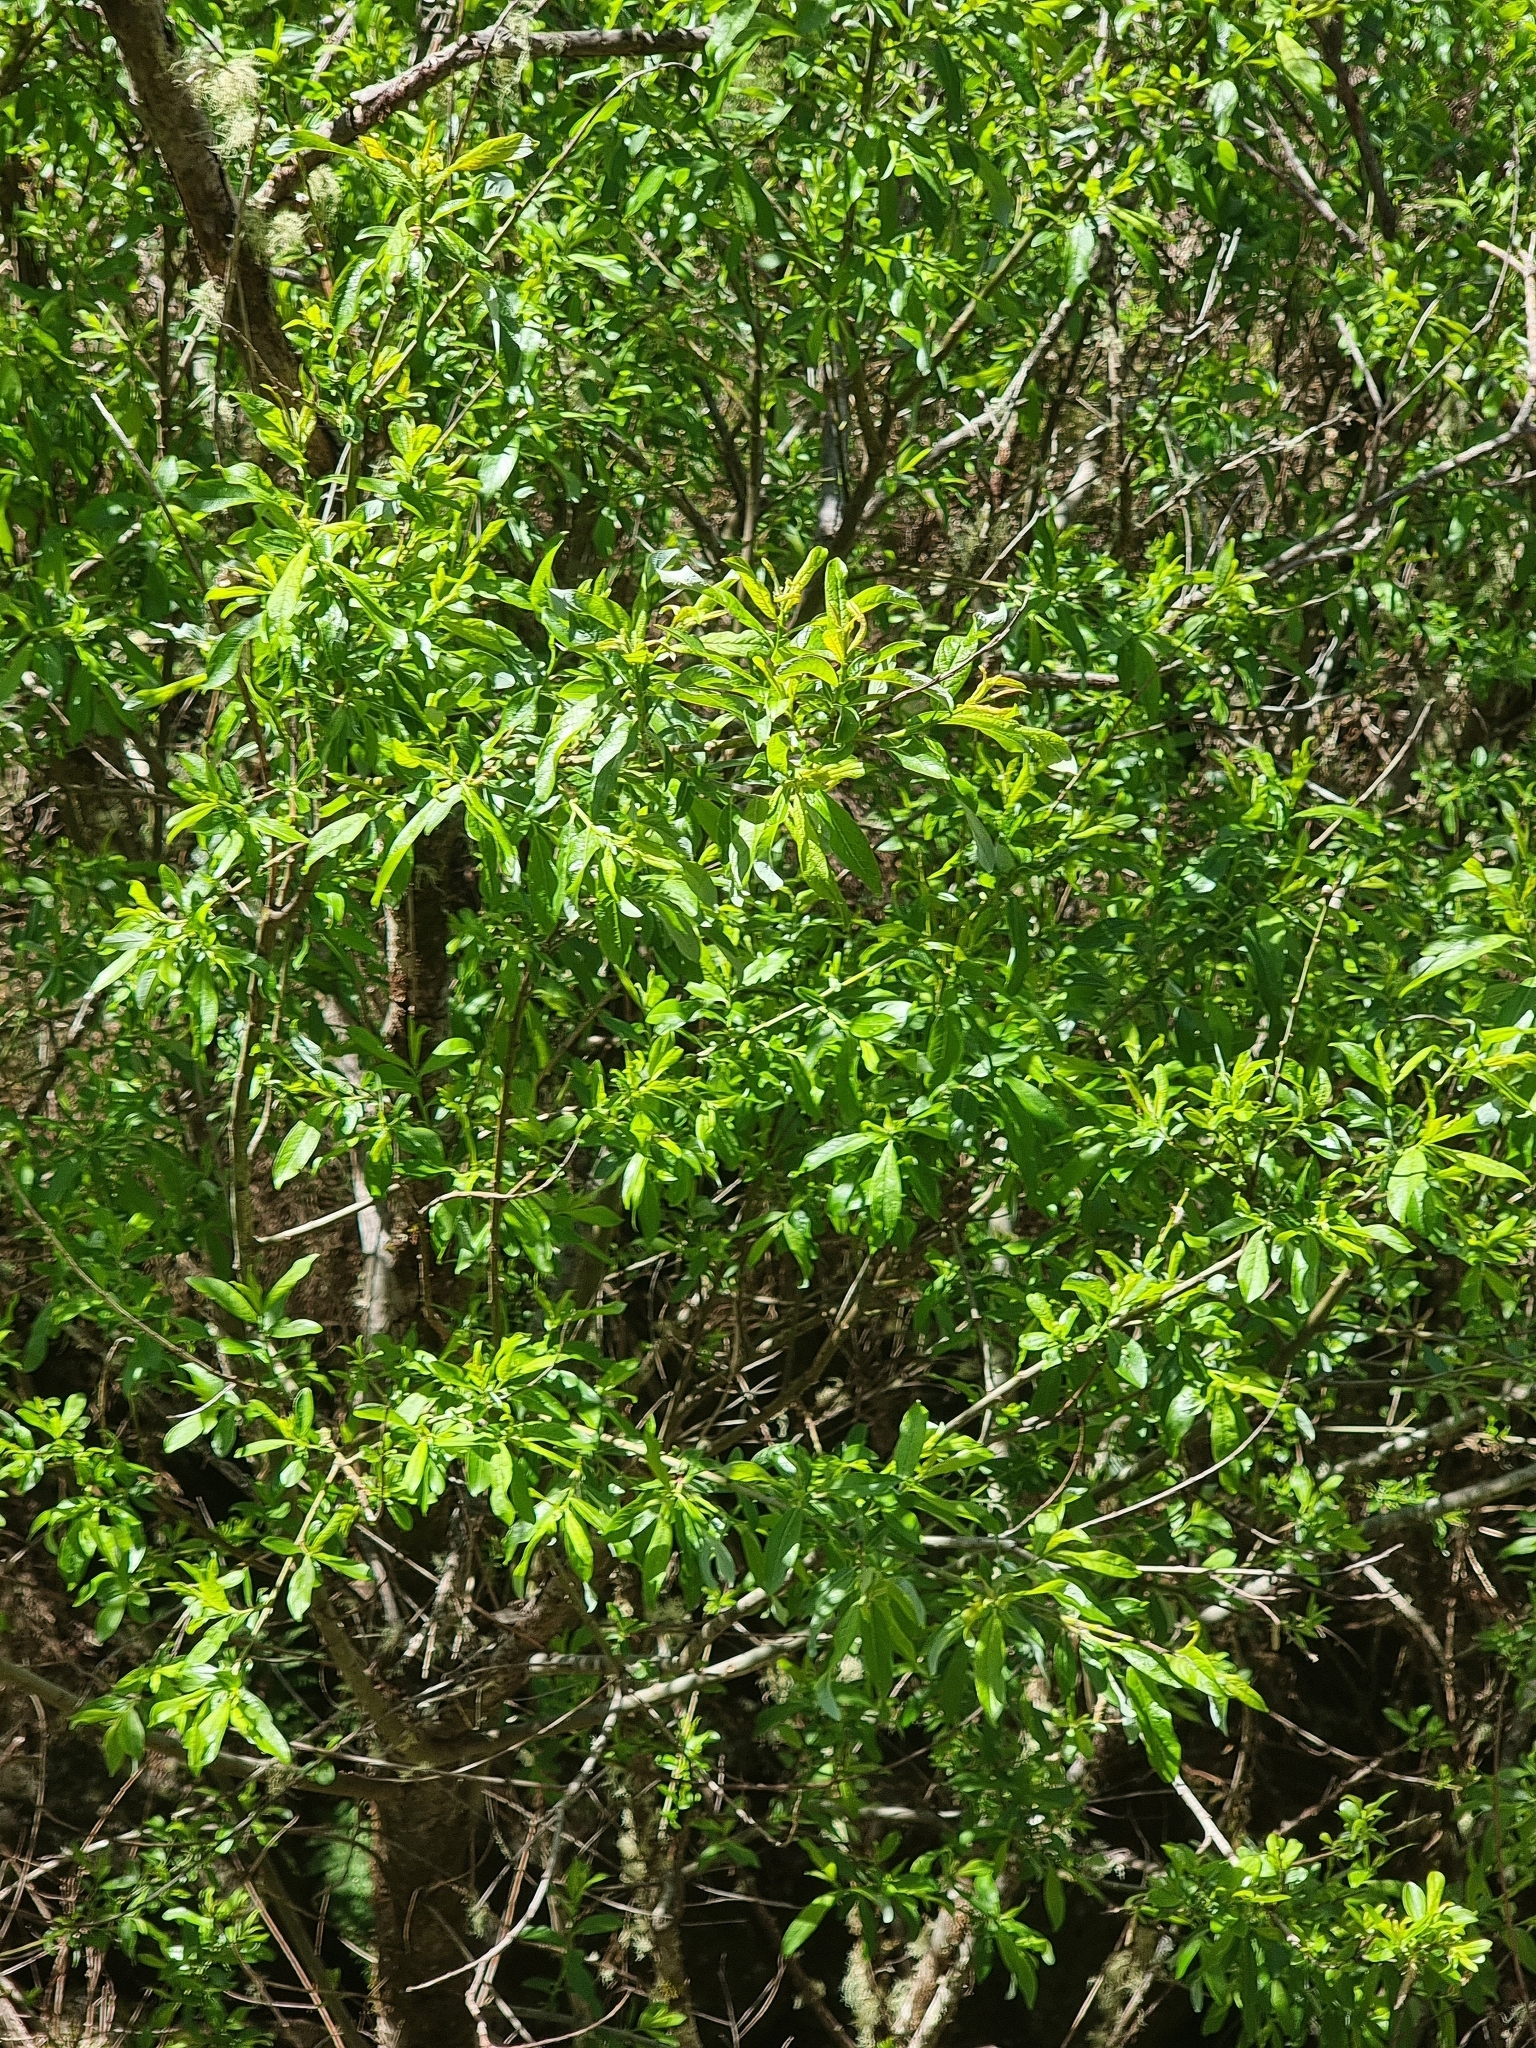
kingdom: Plantae
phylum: Tracheophyta
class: Magnoliopsida
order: Malpighiales
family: Salicaceae
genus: Salix
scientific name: Salix canariensis
